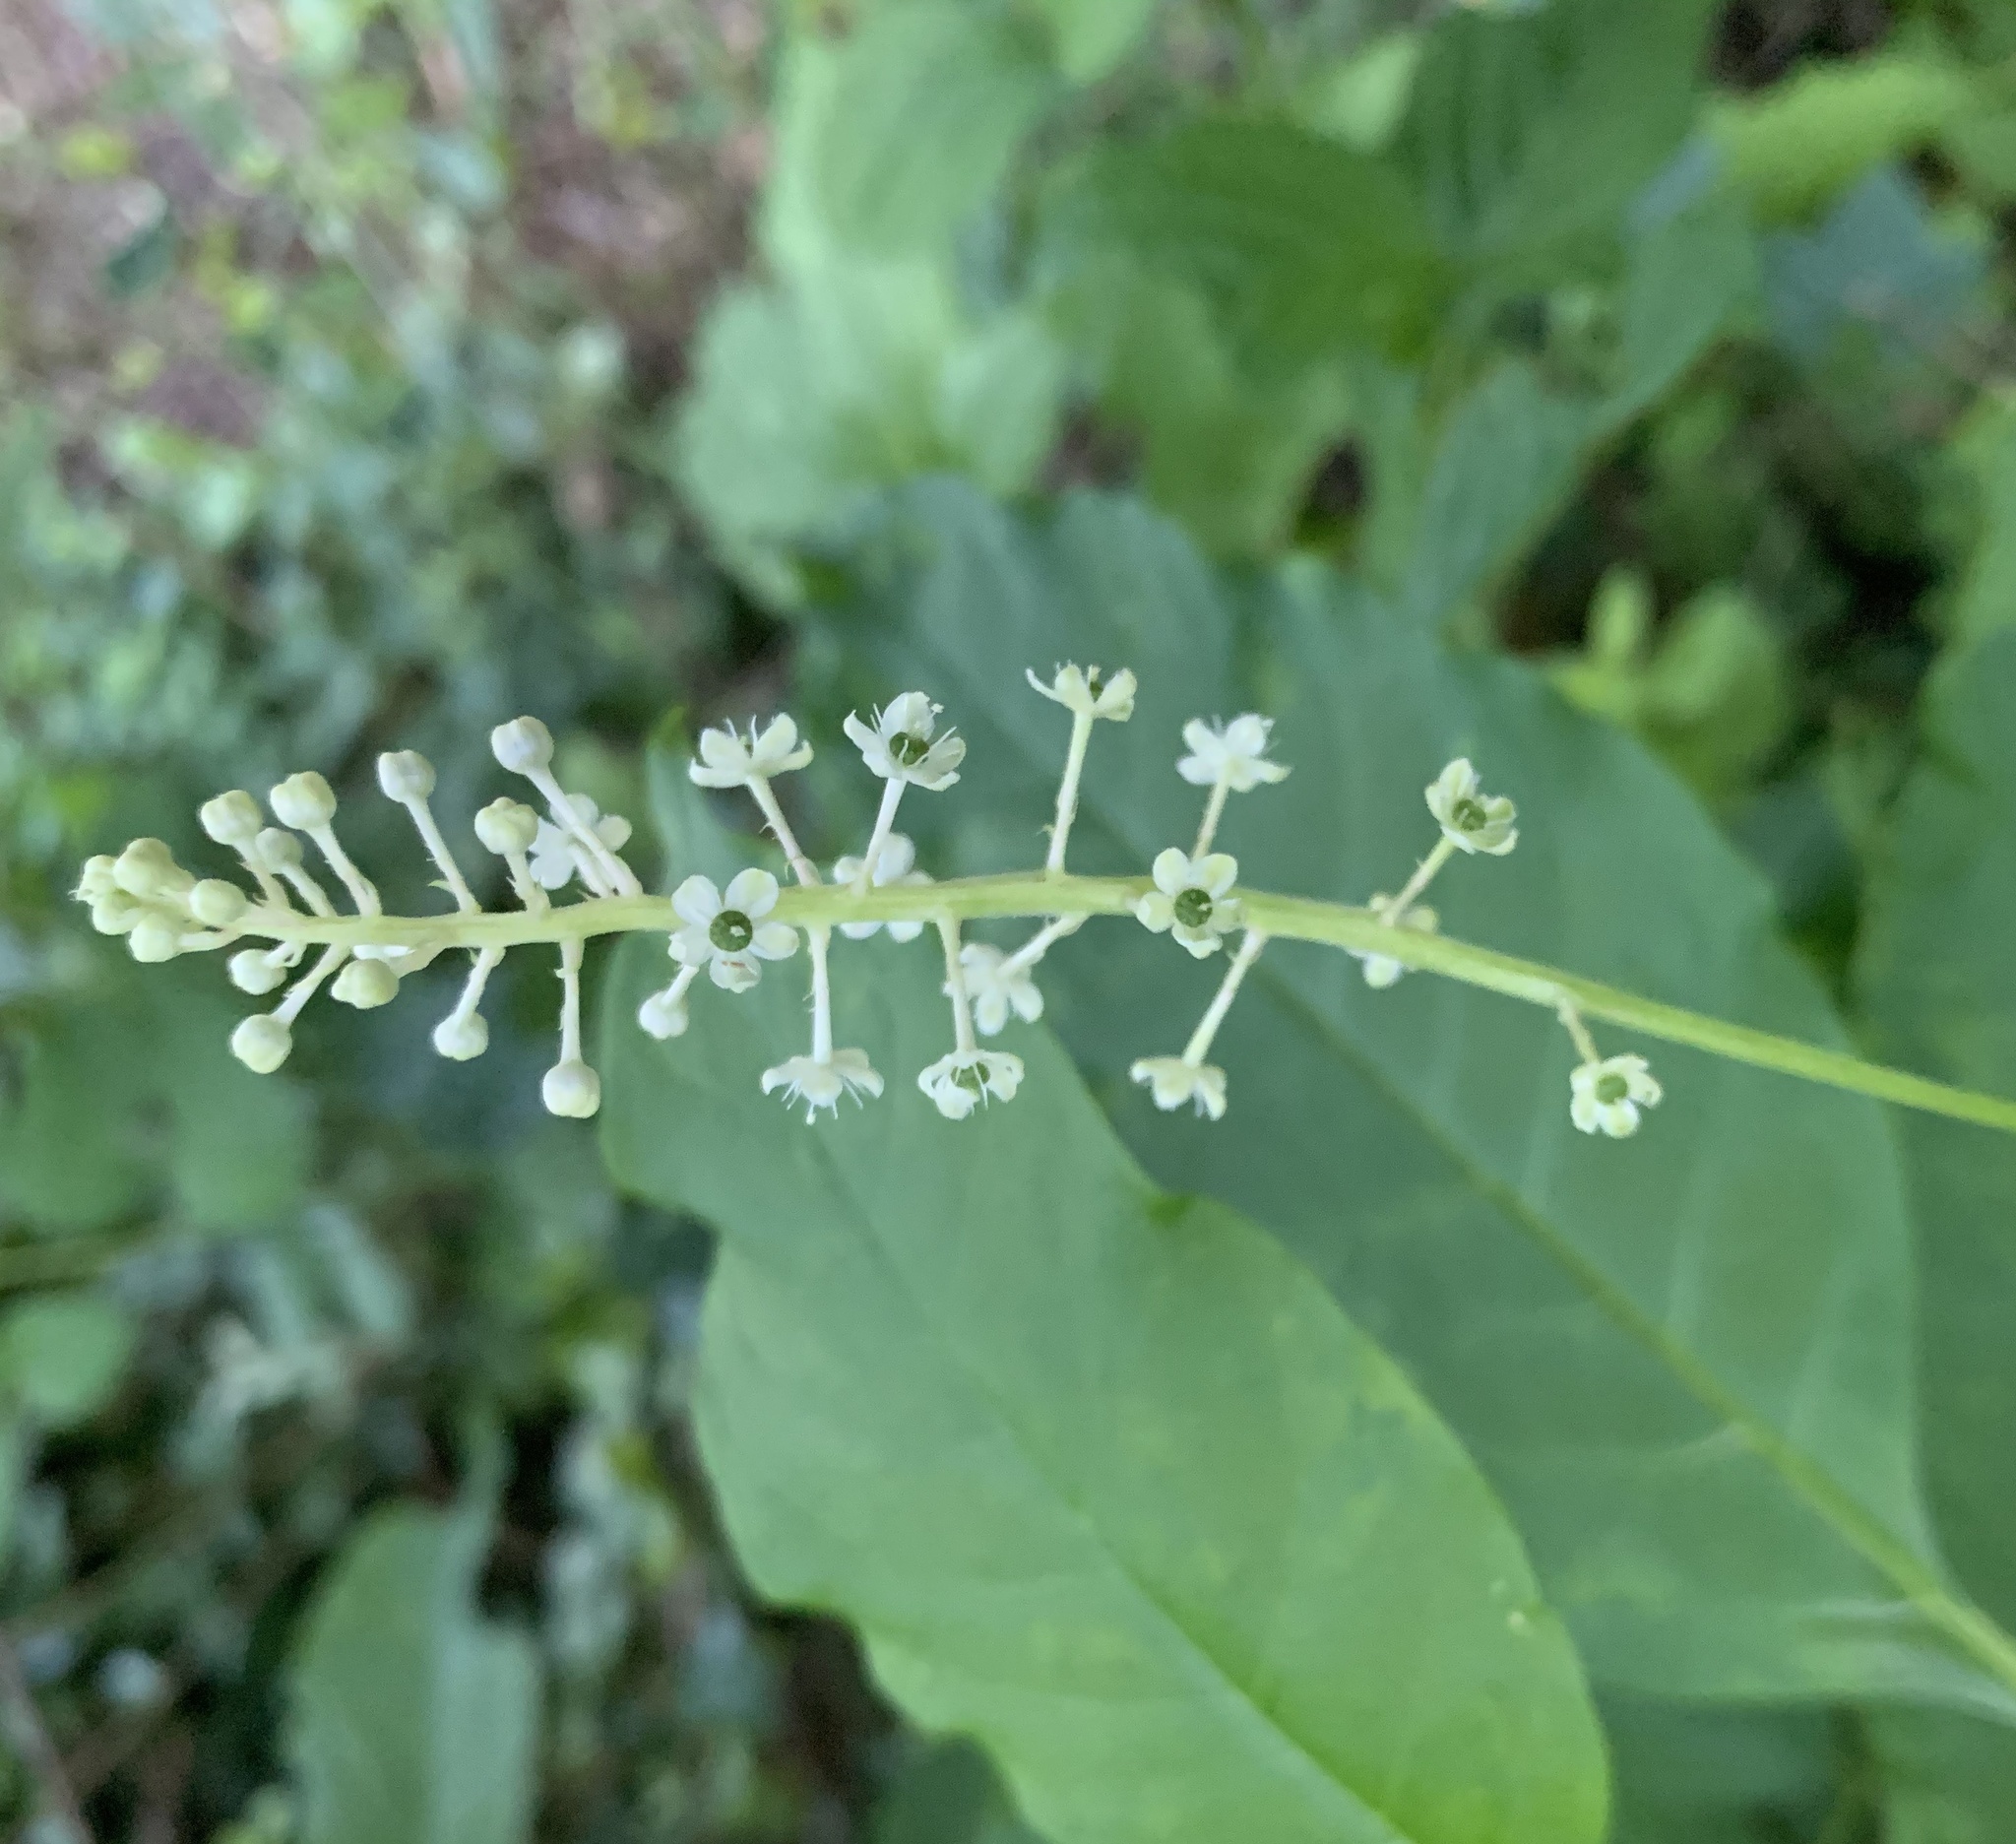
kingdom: Plantae
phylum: Tracheophyta
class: Magnoliopsida
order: Caryophyllales
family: Phytolaccaceae
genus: Phytolacca
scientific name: Phytolacca americana
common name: American pokeweed
